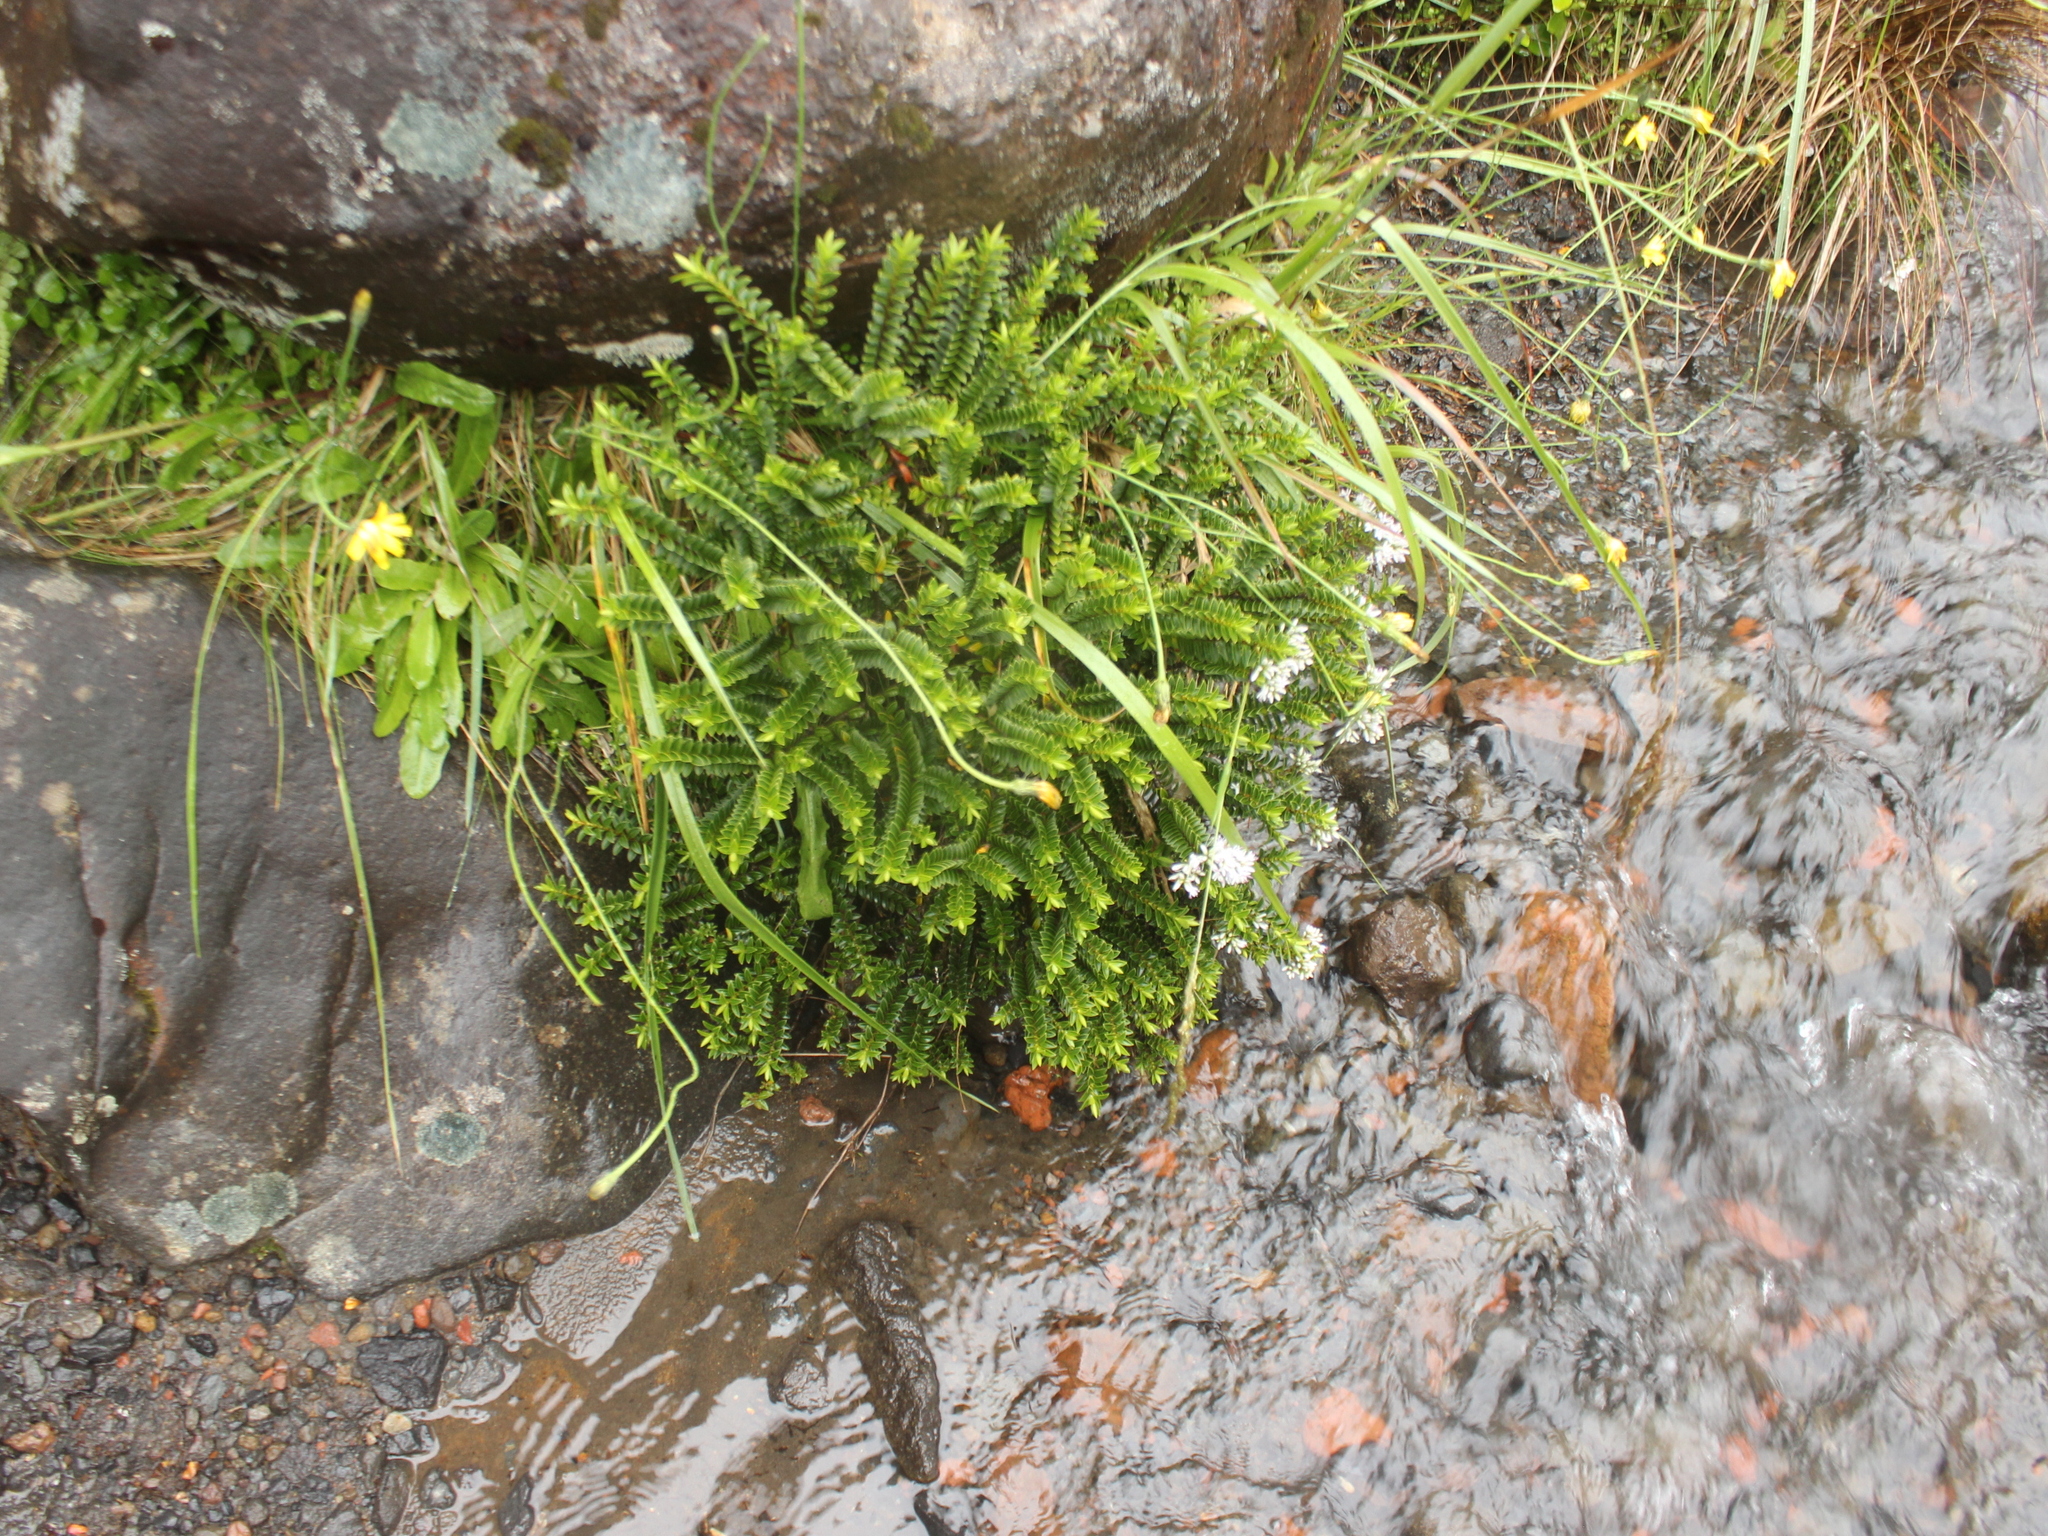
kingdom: Plantae
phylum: Tracheophyta
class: Magnoliopsida
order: Lamiales
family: Plantaginaceae
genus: Veronica
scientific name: Veronica venustula
